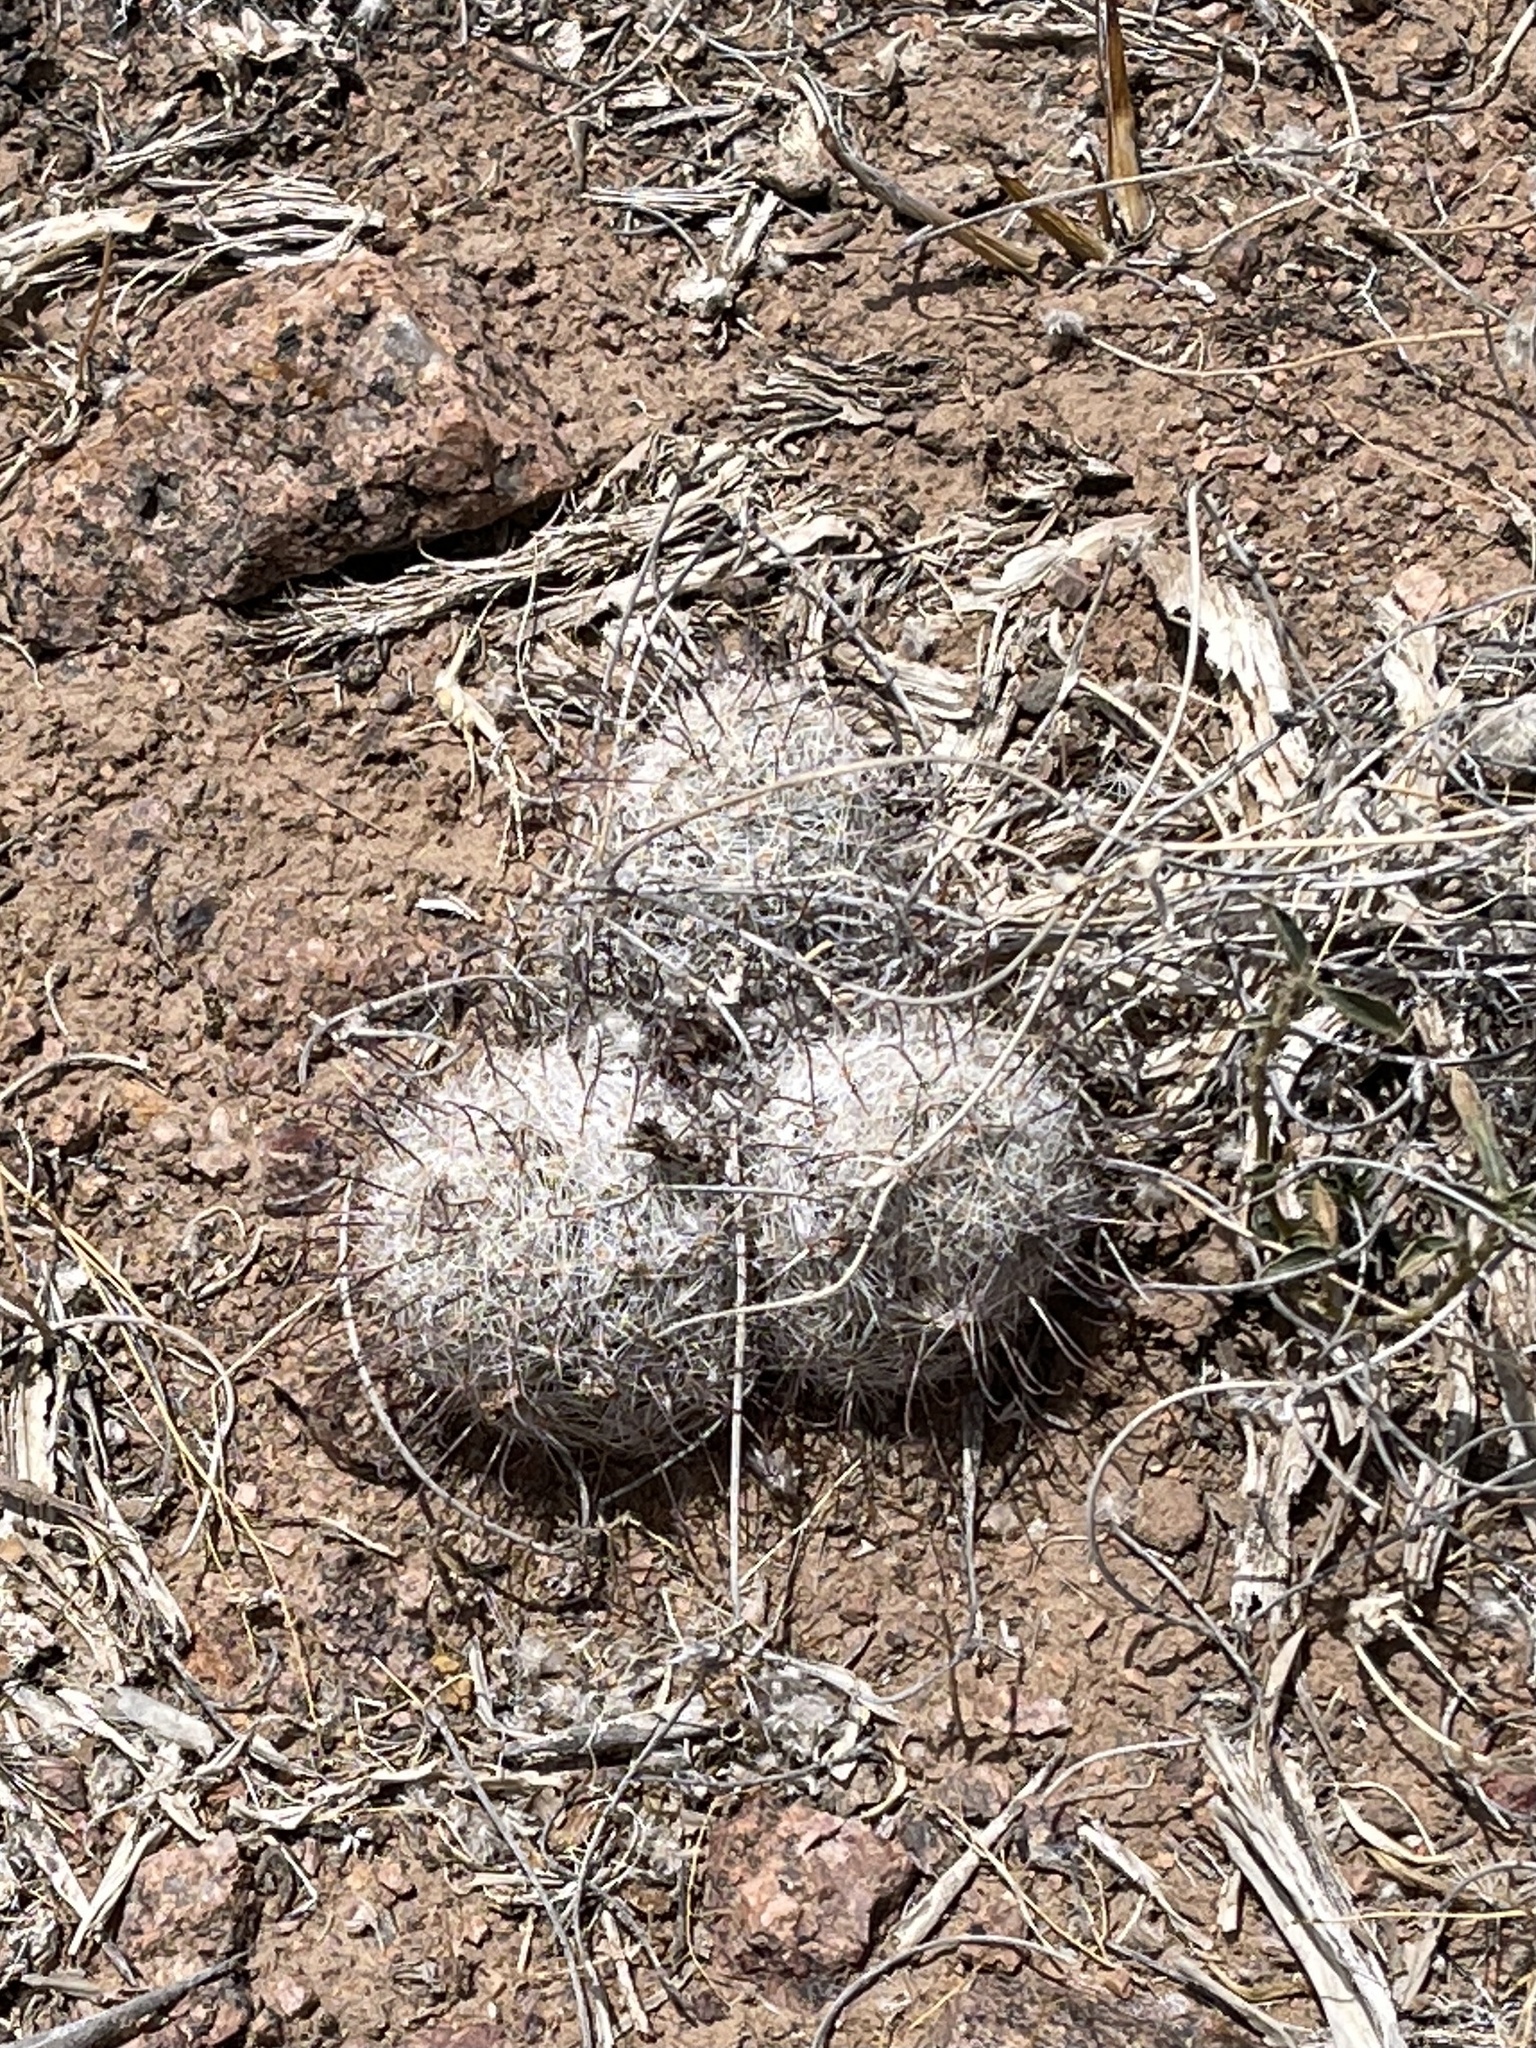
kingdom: Plantae
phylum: Tracheophyta
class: Magnoliopsida
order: Caryophyllales
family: Cactaceae
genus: Cochemiea
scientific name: Cochemiea grahamii
